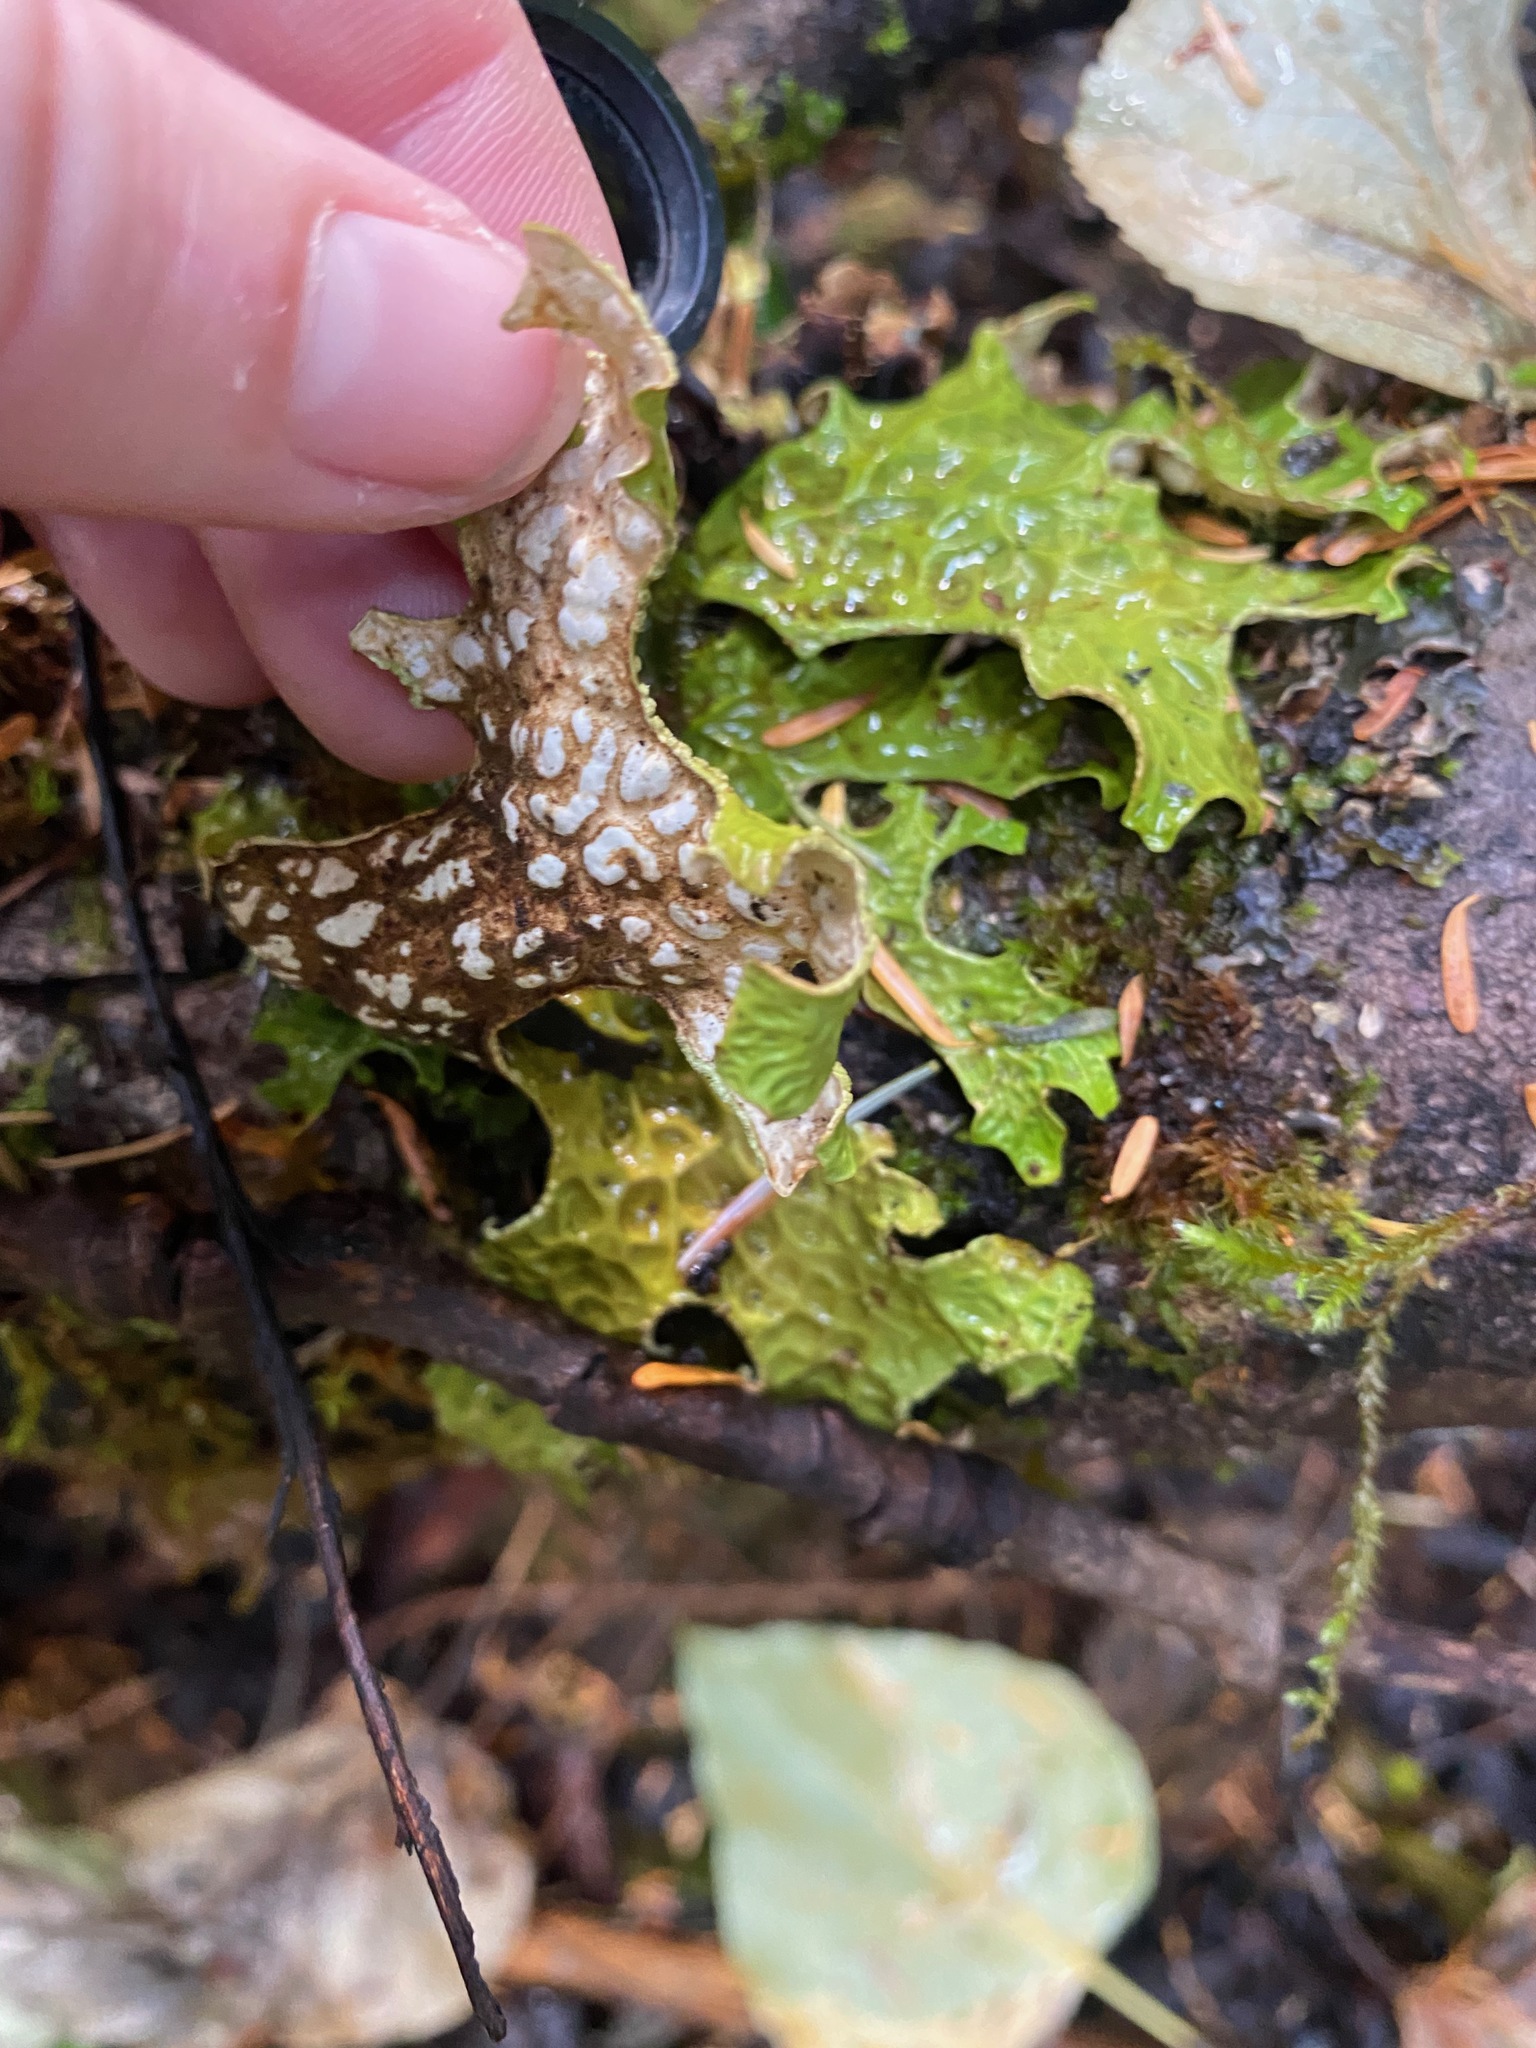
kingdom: Fungi
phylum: Ascomycota
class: Lecanoromycetes
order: Peltigerales
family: Lobariaceae
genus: Lobaria
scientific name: Lobaria pulmonaria
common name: Lungwort
